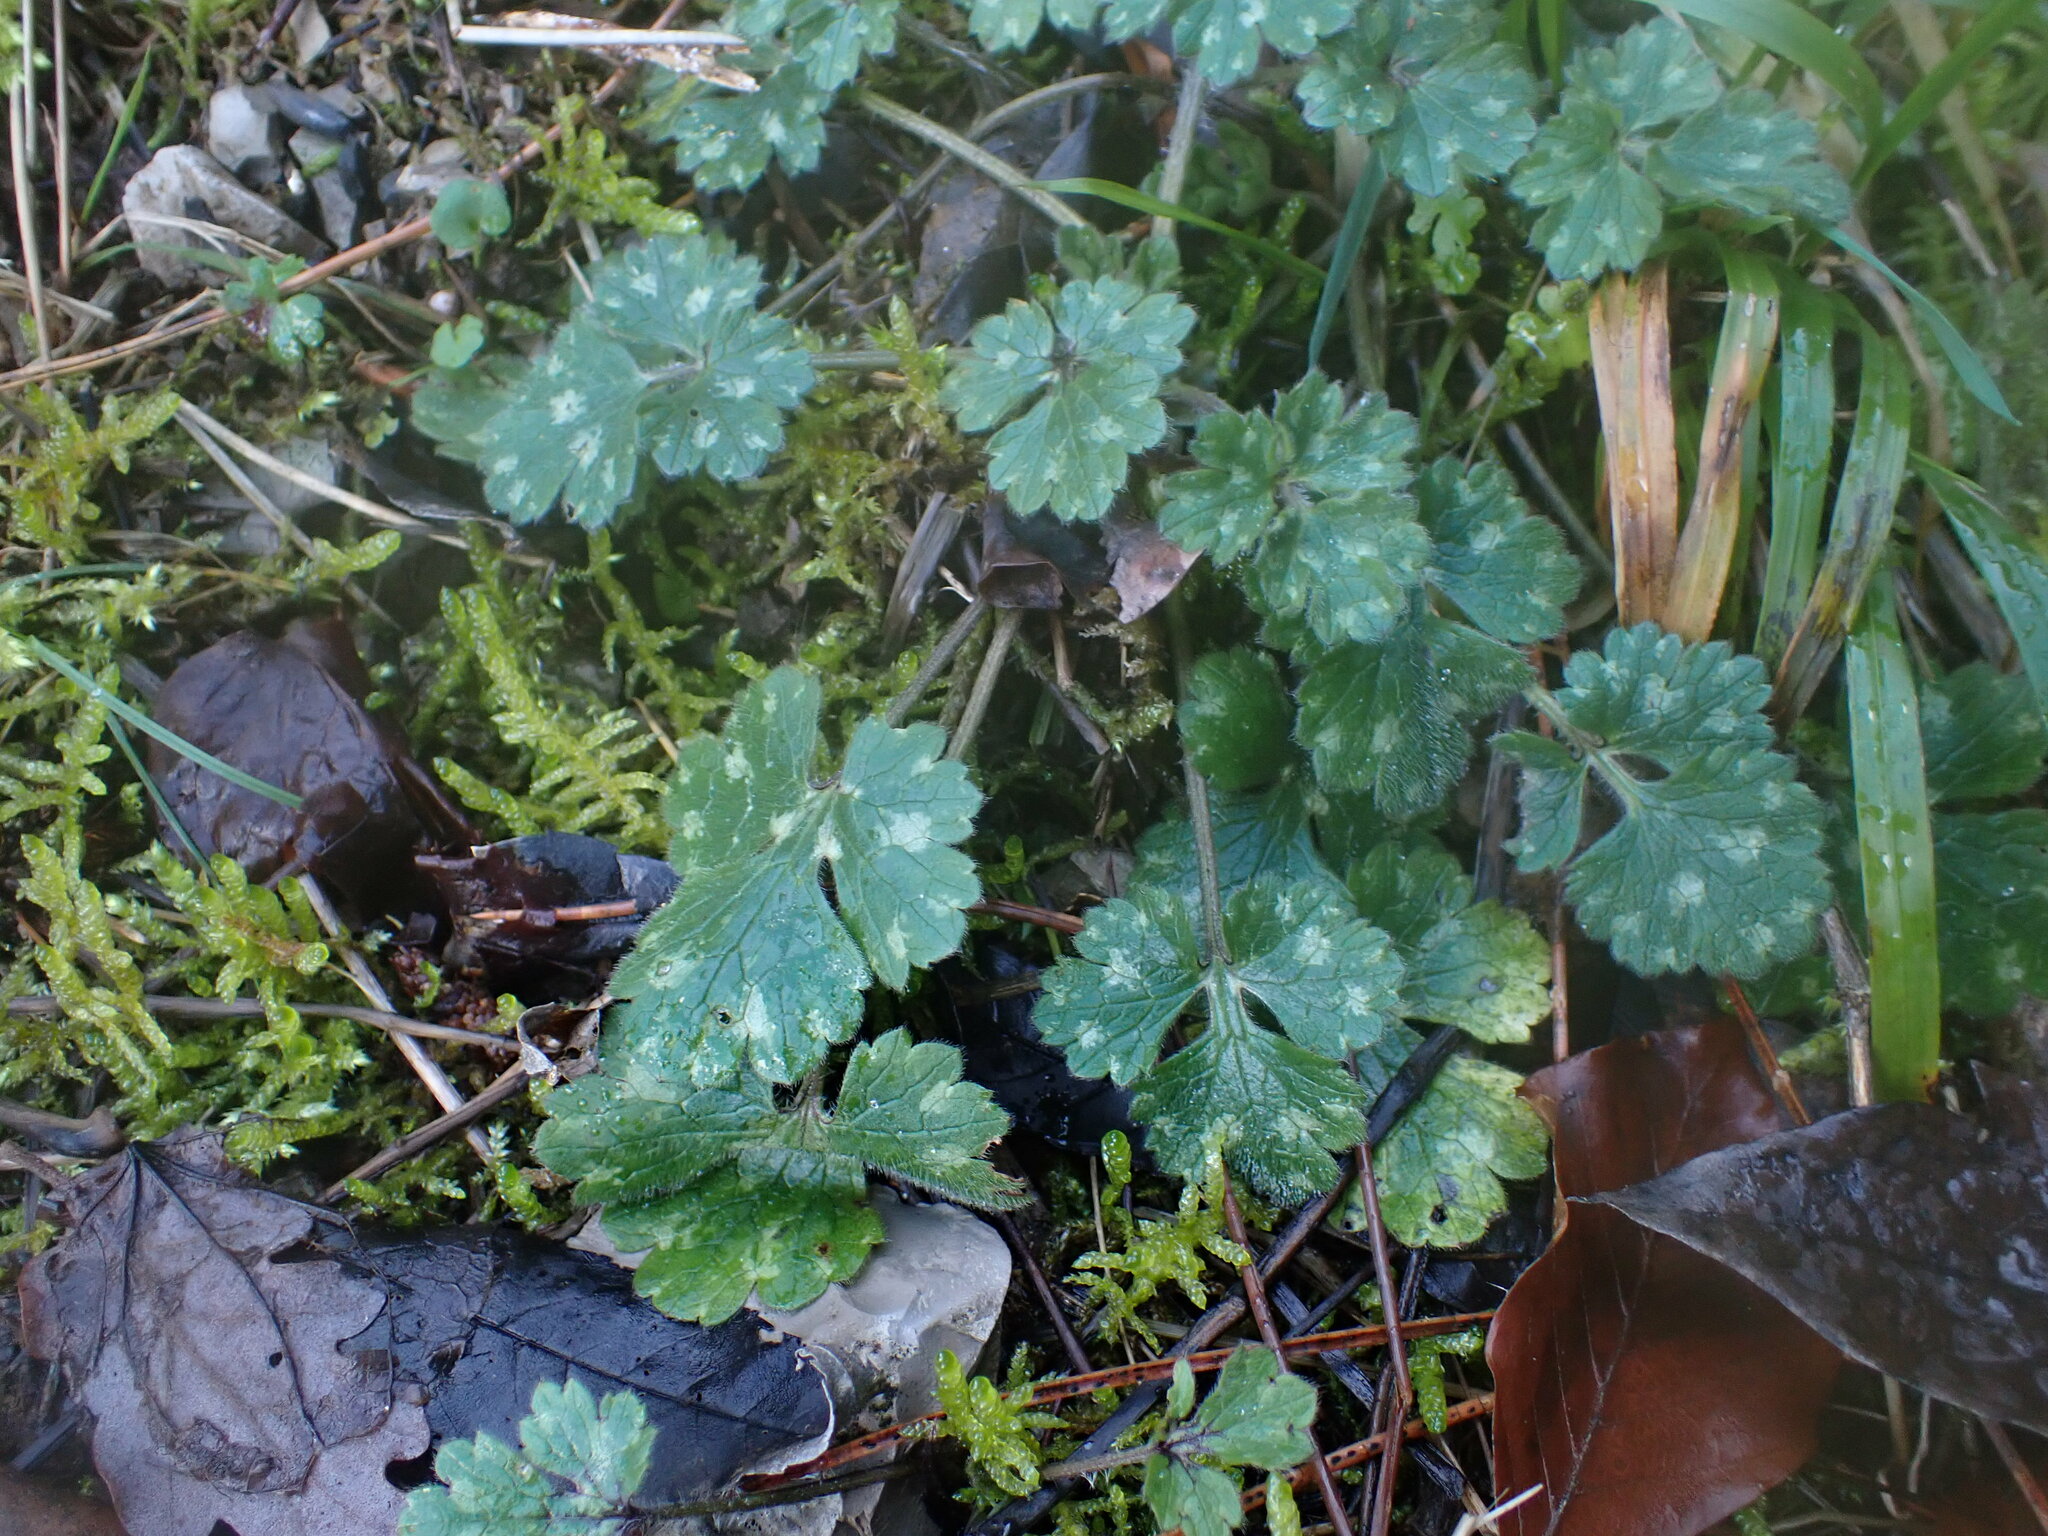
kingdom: Plantae
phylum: Tracheophyta
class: Magnoliopsida
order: Ranunculales
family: Ranunculaceae
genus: Ranunculus
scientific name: Ranunculus bulbosus
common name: Bulbous buttercup
